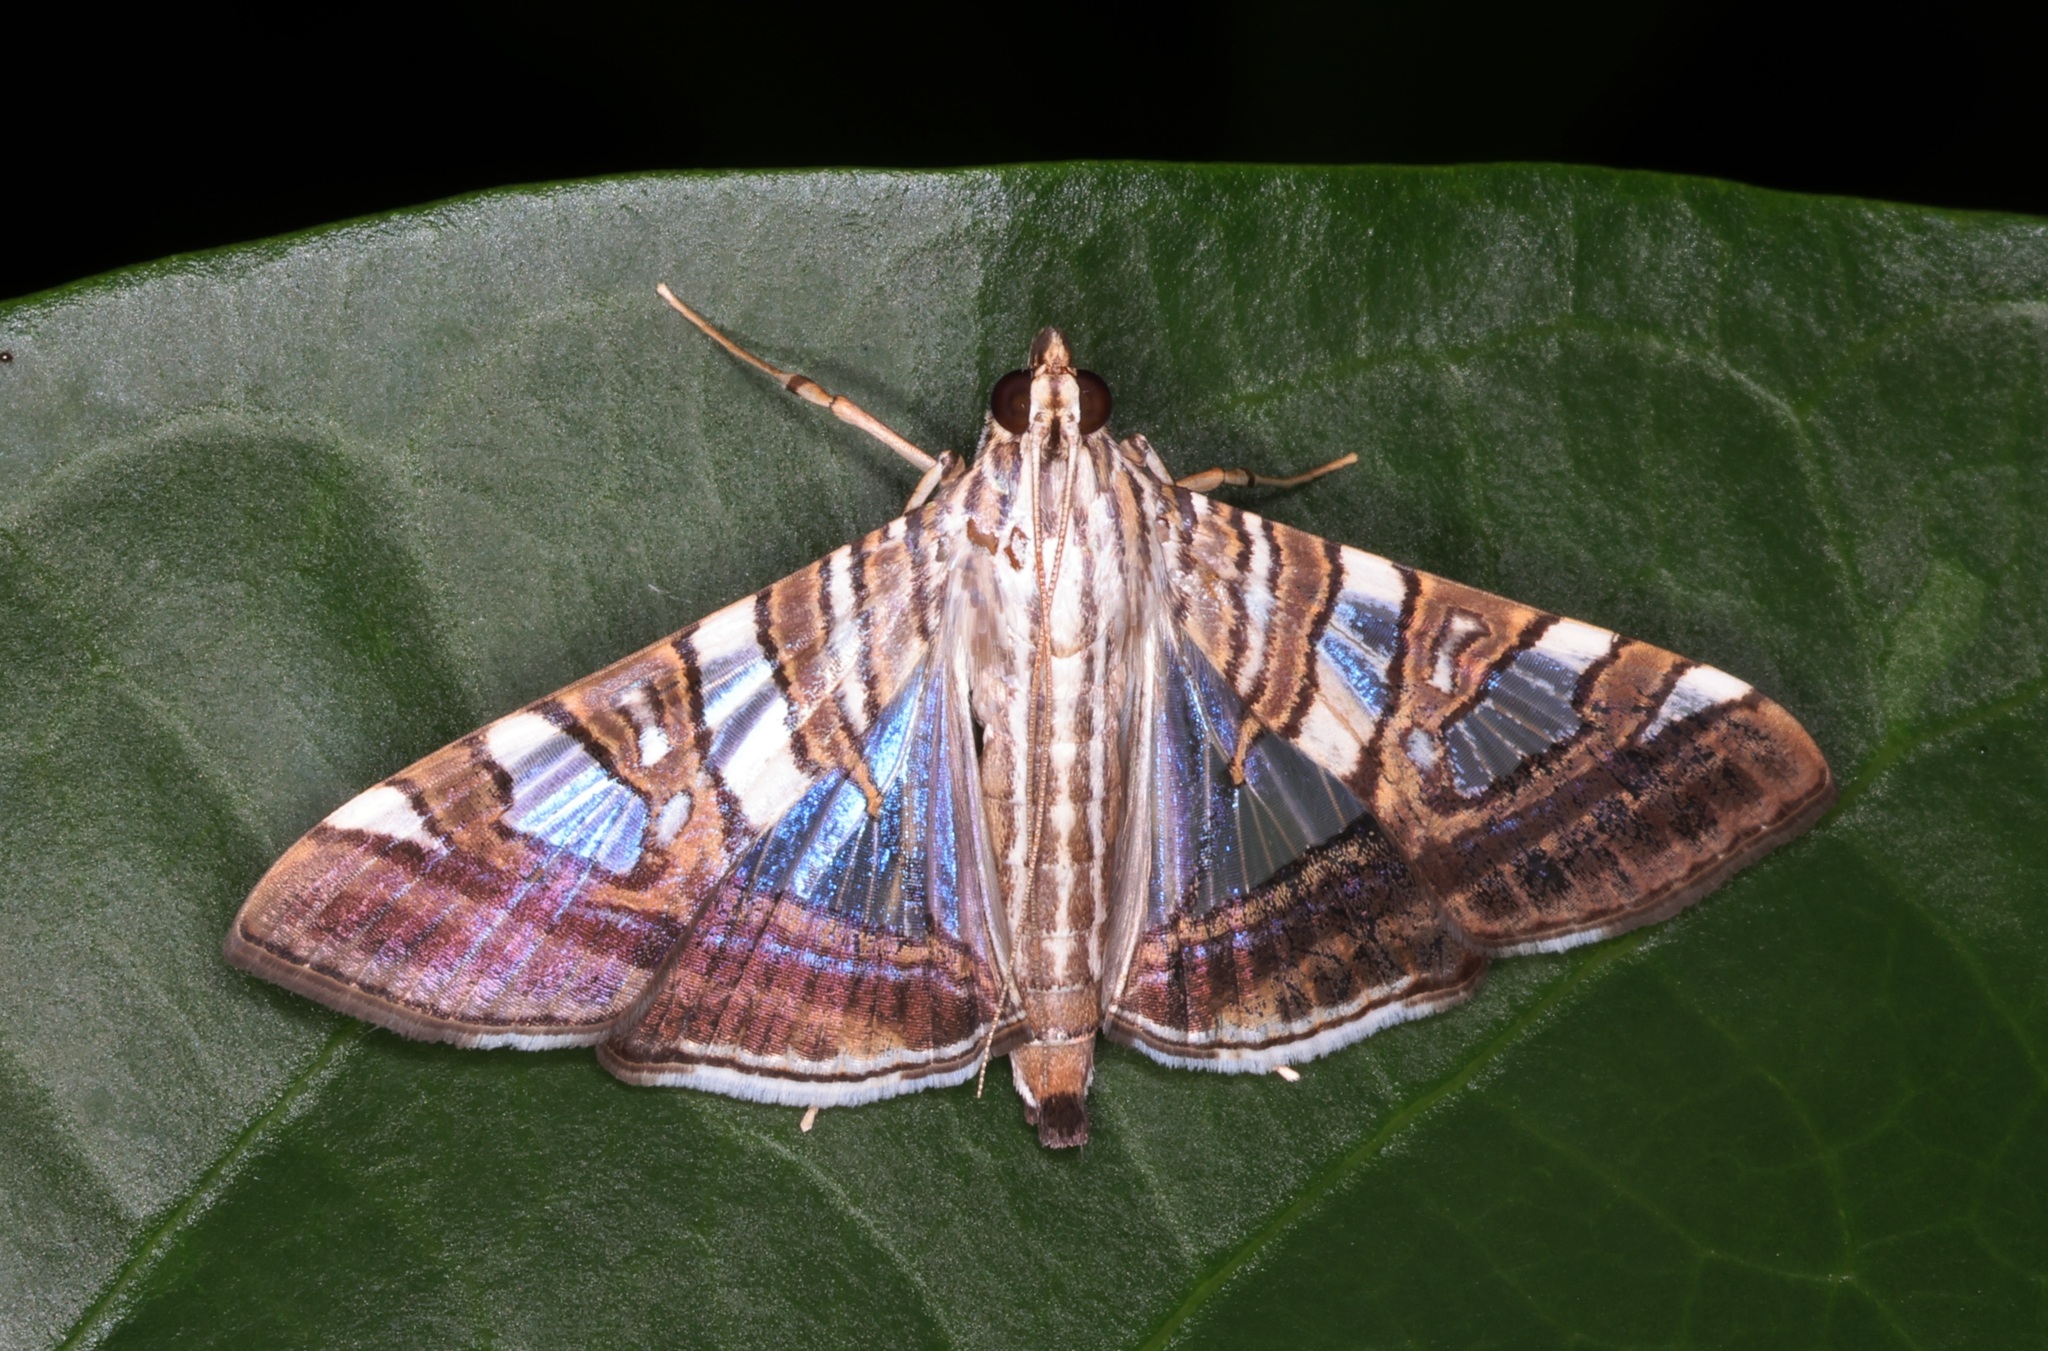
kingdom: Animalia
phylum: Arthropoda
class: Insecta
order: Lepidoptera
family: Crambidae
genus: Glyphodes
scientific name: Glyphodes stolalis
